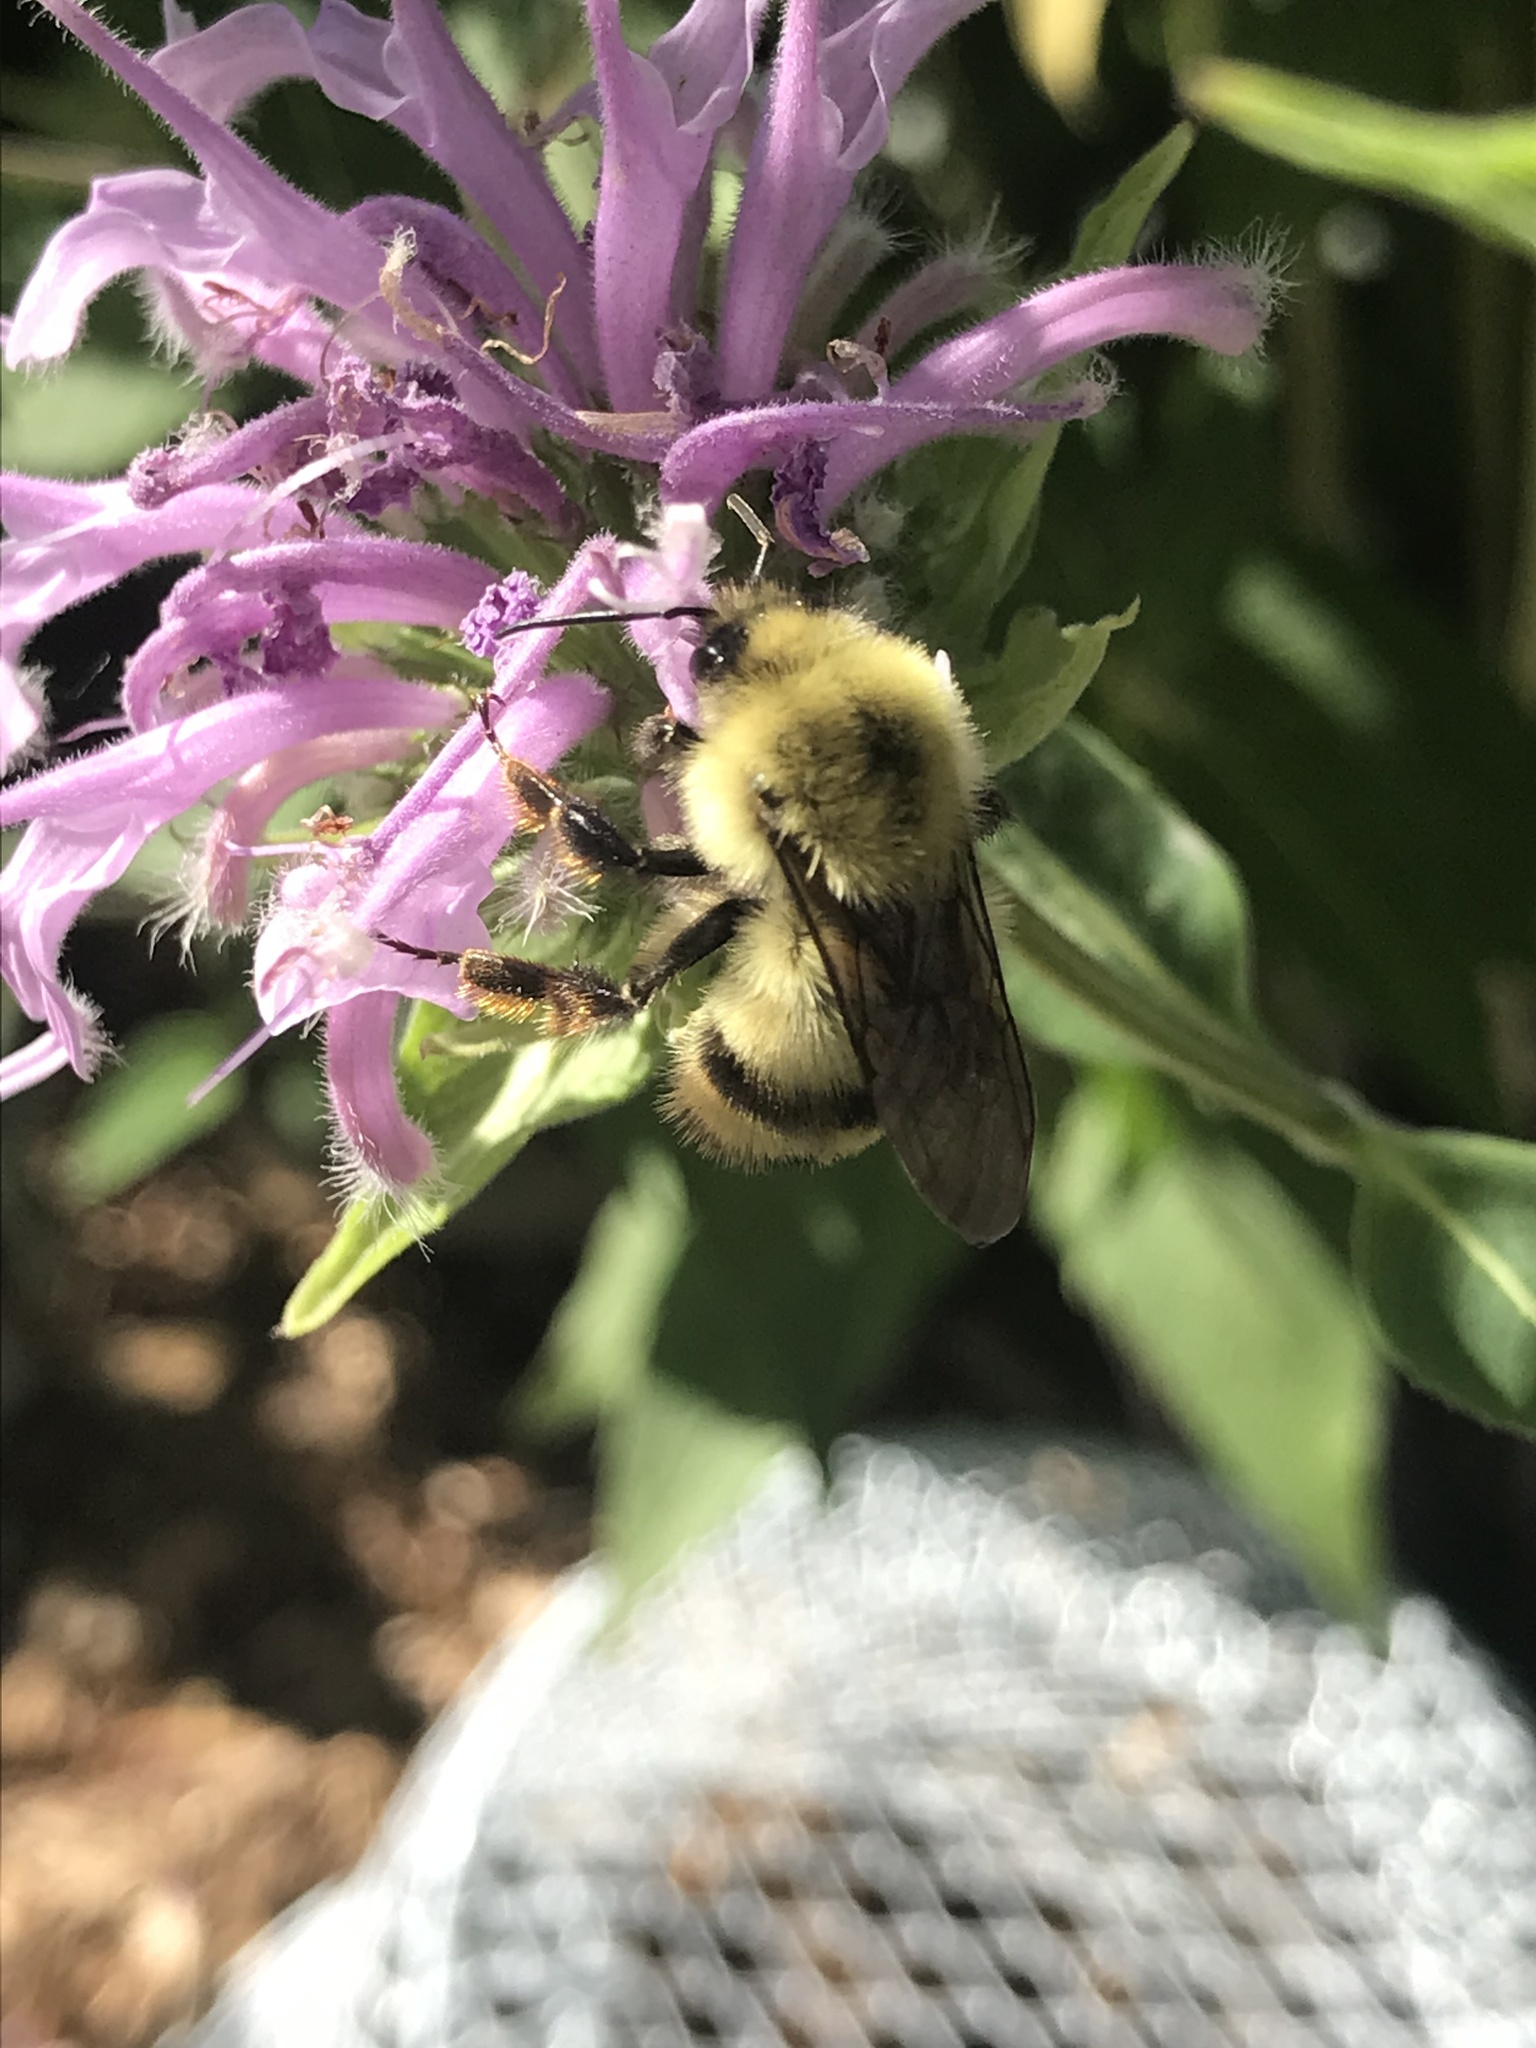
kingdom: Animalia
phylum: Arthropoda
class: Insecta
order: Hymenoptera
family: Apidae
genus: Bombus
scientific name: Bombus bimaculatus
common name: Two-spotted bumble bee
